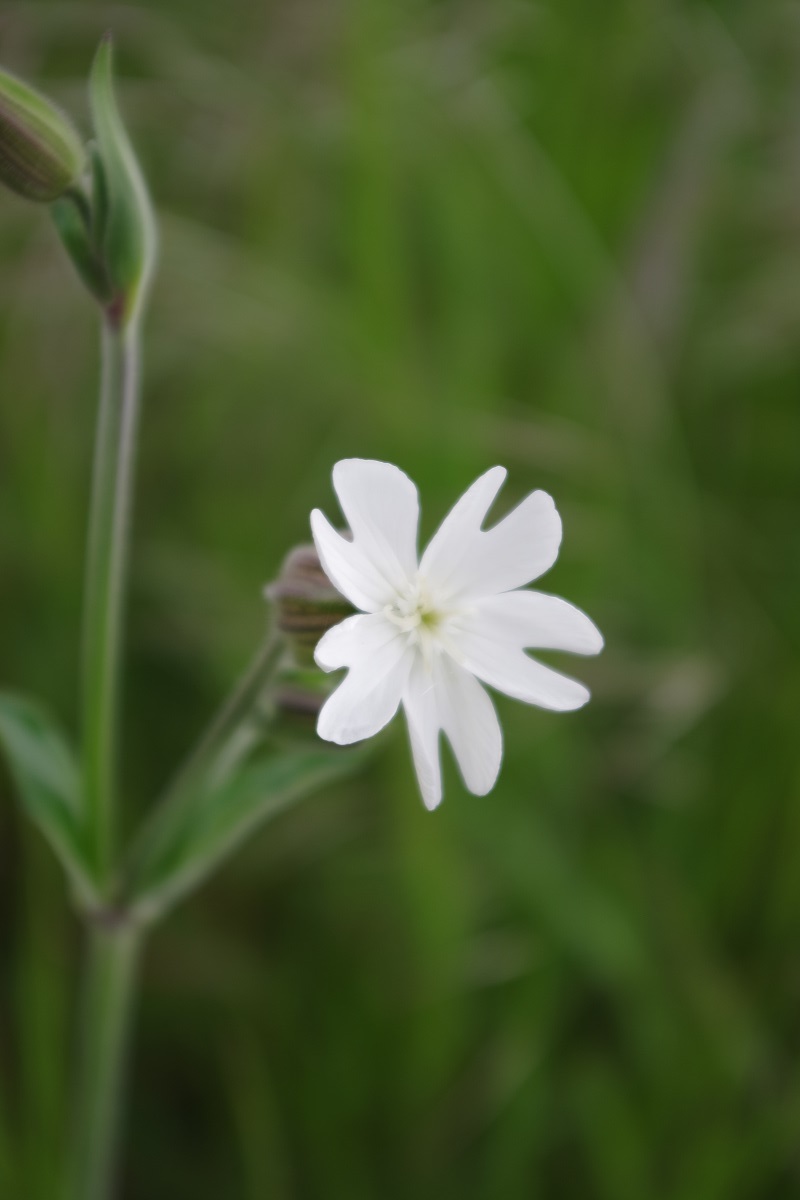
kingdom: Plantae
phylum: Tracheophyta
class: Magnoliopsida
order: Caryophyllales
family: Caryophyllaceae
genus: Silene
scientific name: Silene latifolia
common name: White campion
